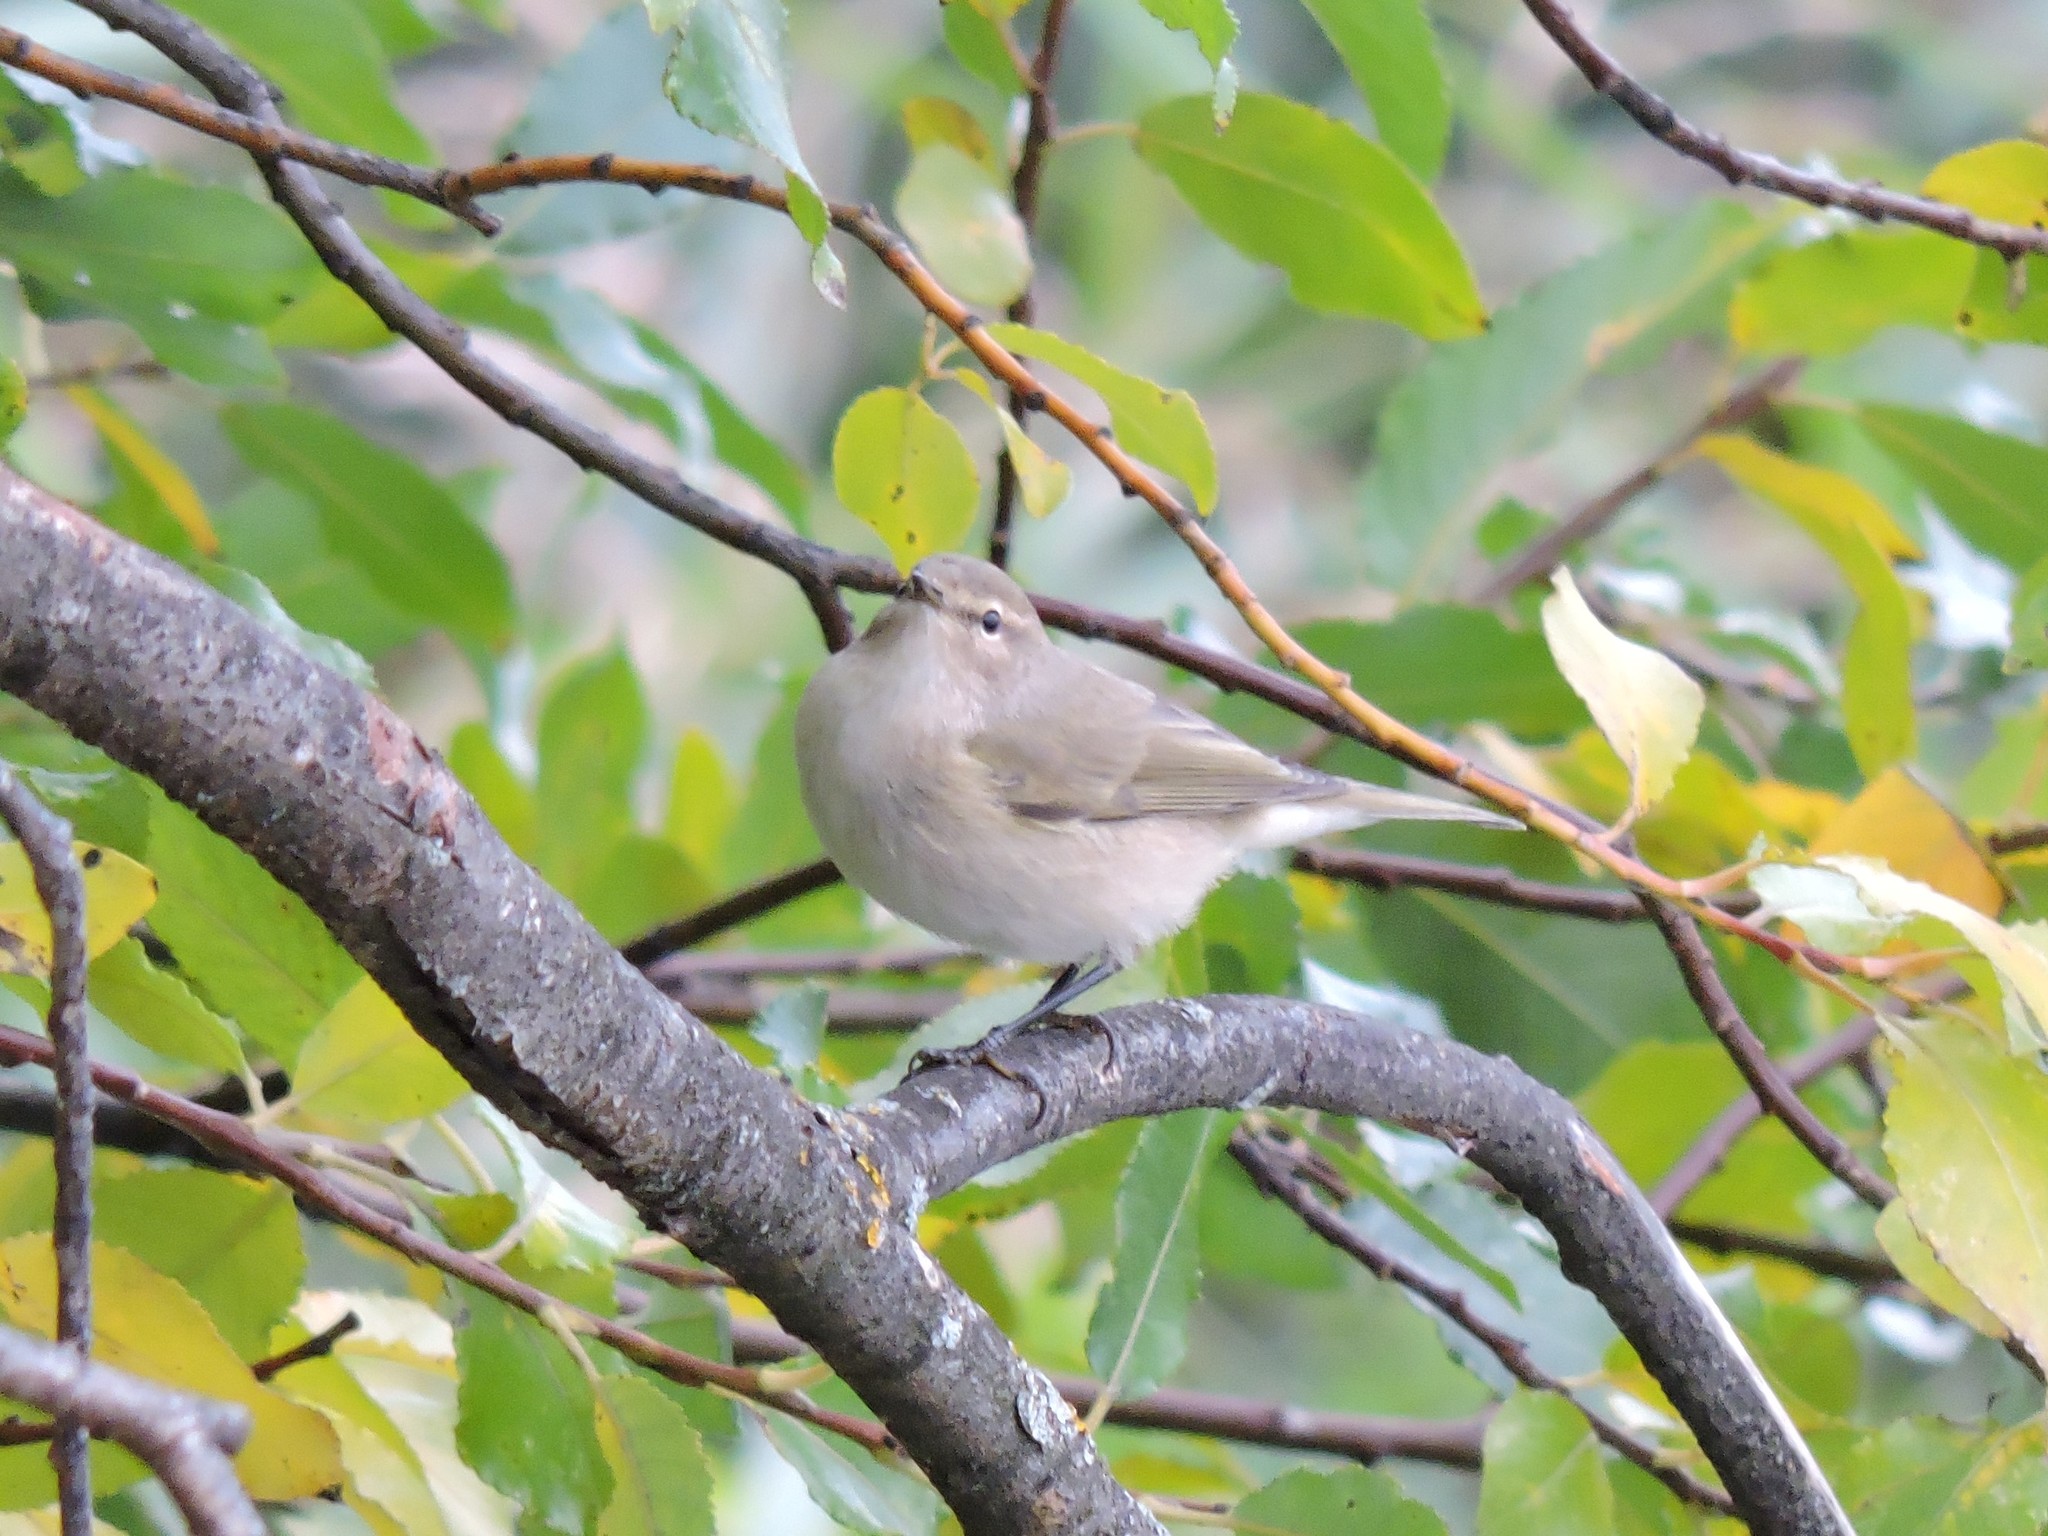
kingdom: Animalia
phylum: Chordata
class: Aves
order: Passeriformes
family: Phylloscopidae
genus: Phylloscopus
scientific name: Phylloscopus collybita
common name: Common chiffchaff
